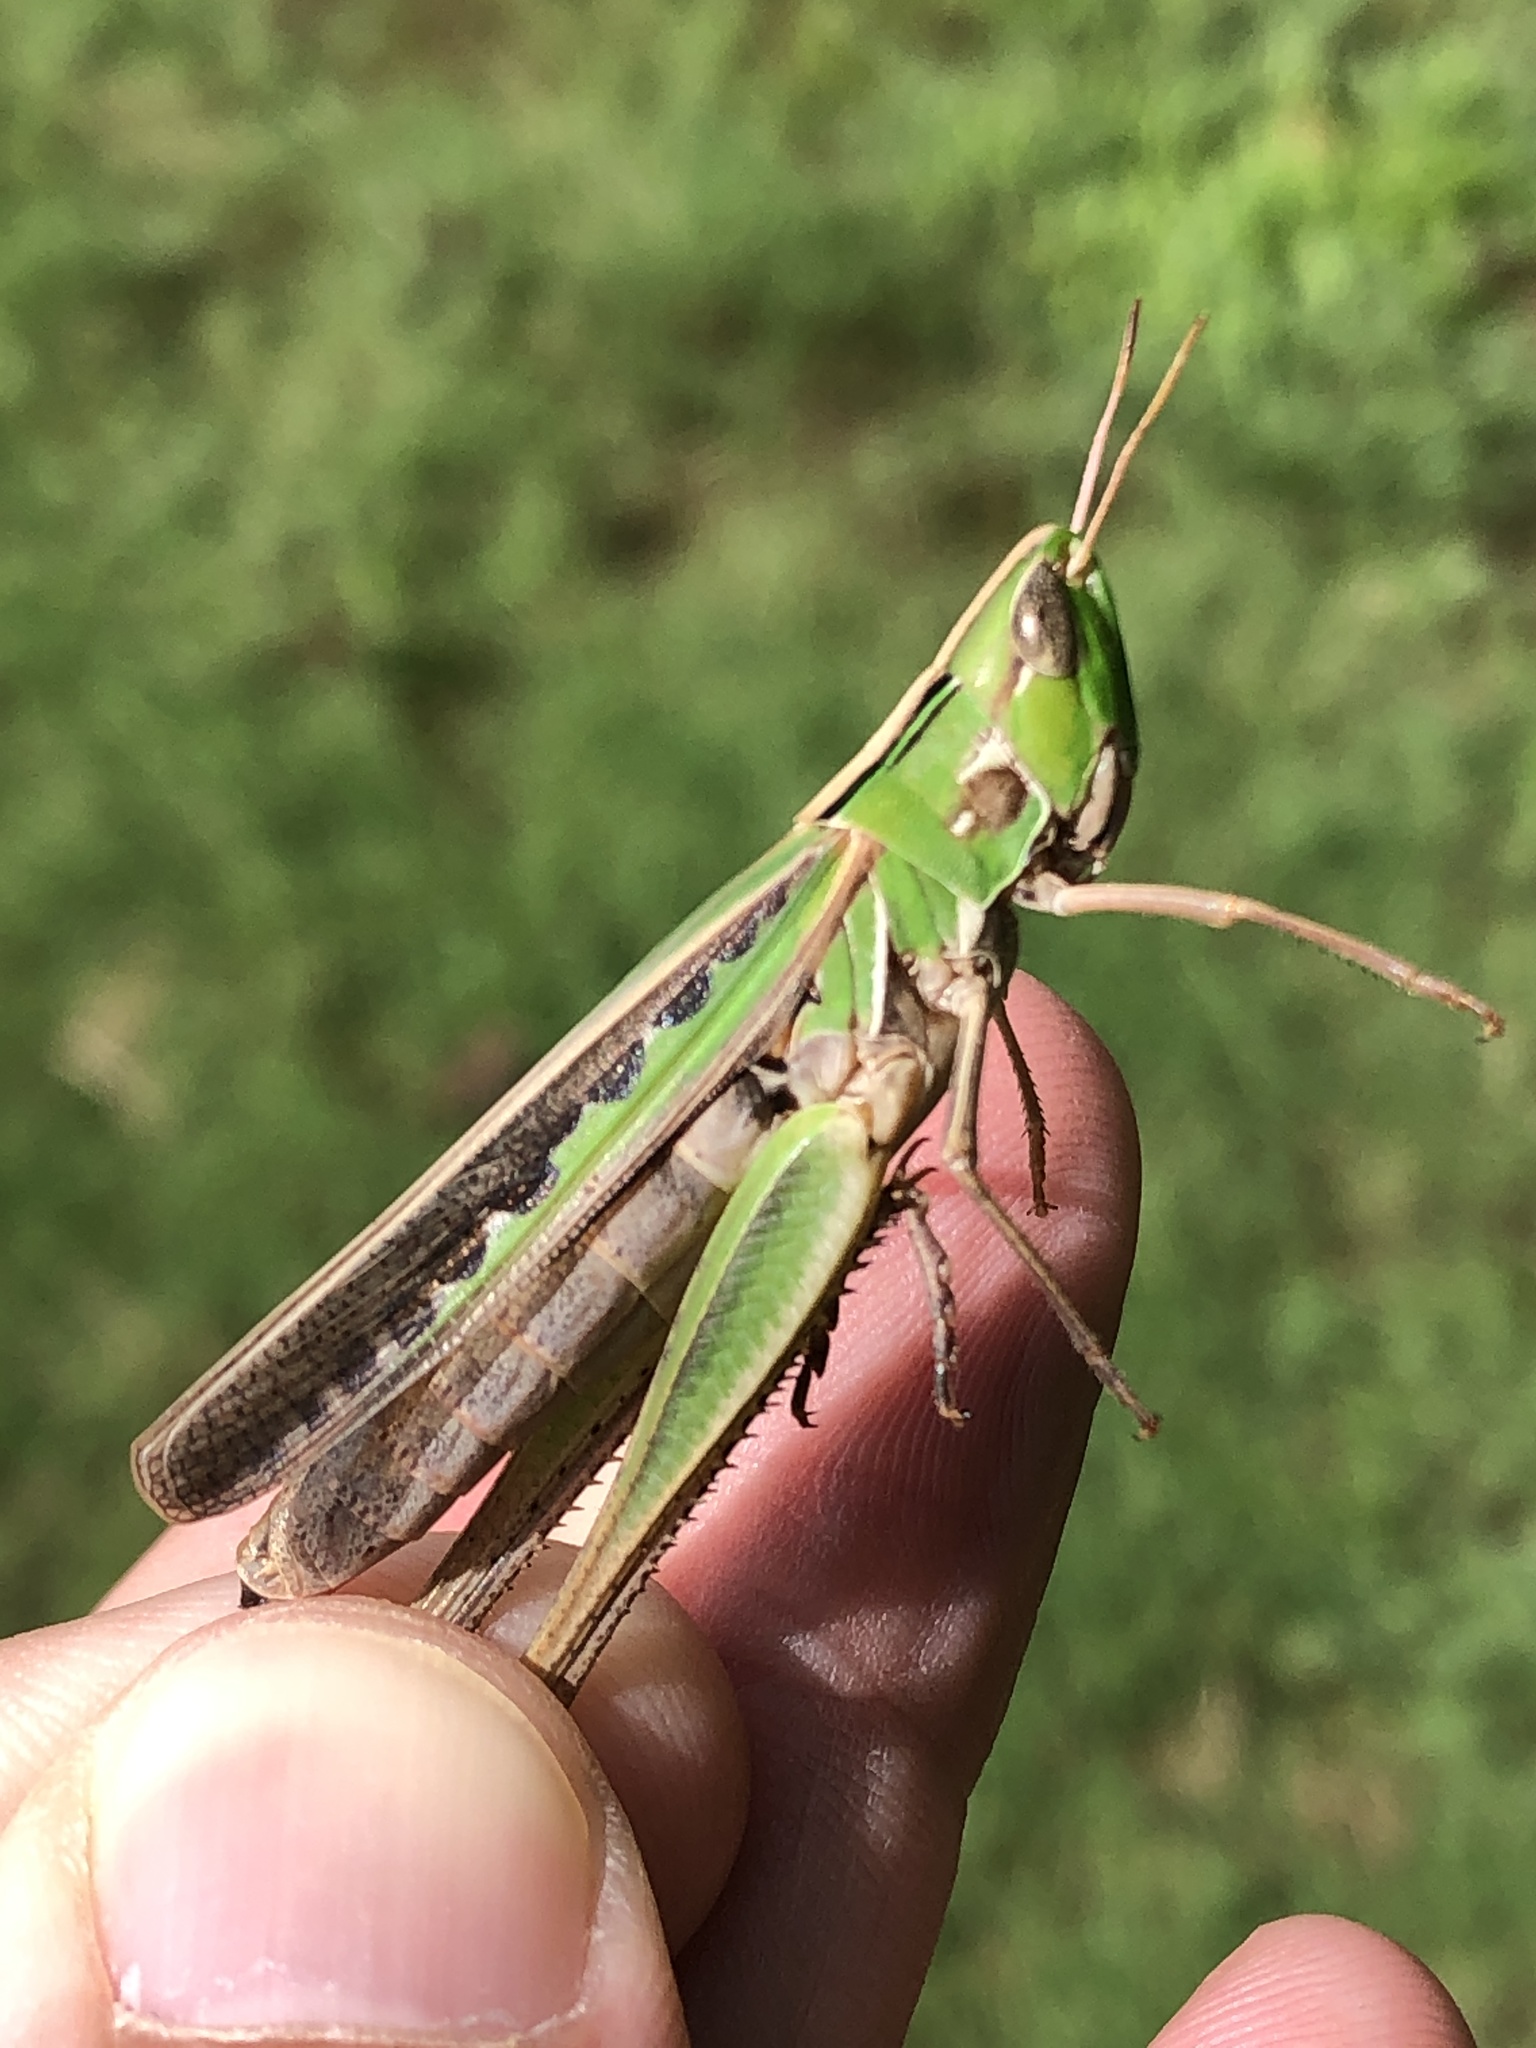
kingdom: Animalia
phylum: Arthropoda
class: Insecta
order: Orthoptera
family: Acrididae
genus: Syrbula
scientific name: Syrbula admirabilis
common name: Handsome grasshopper
